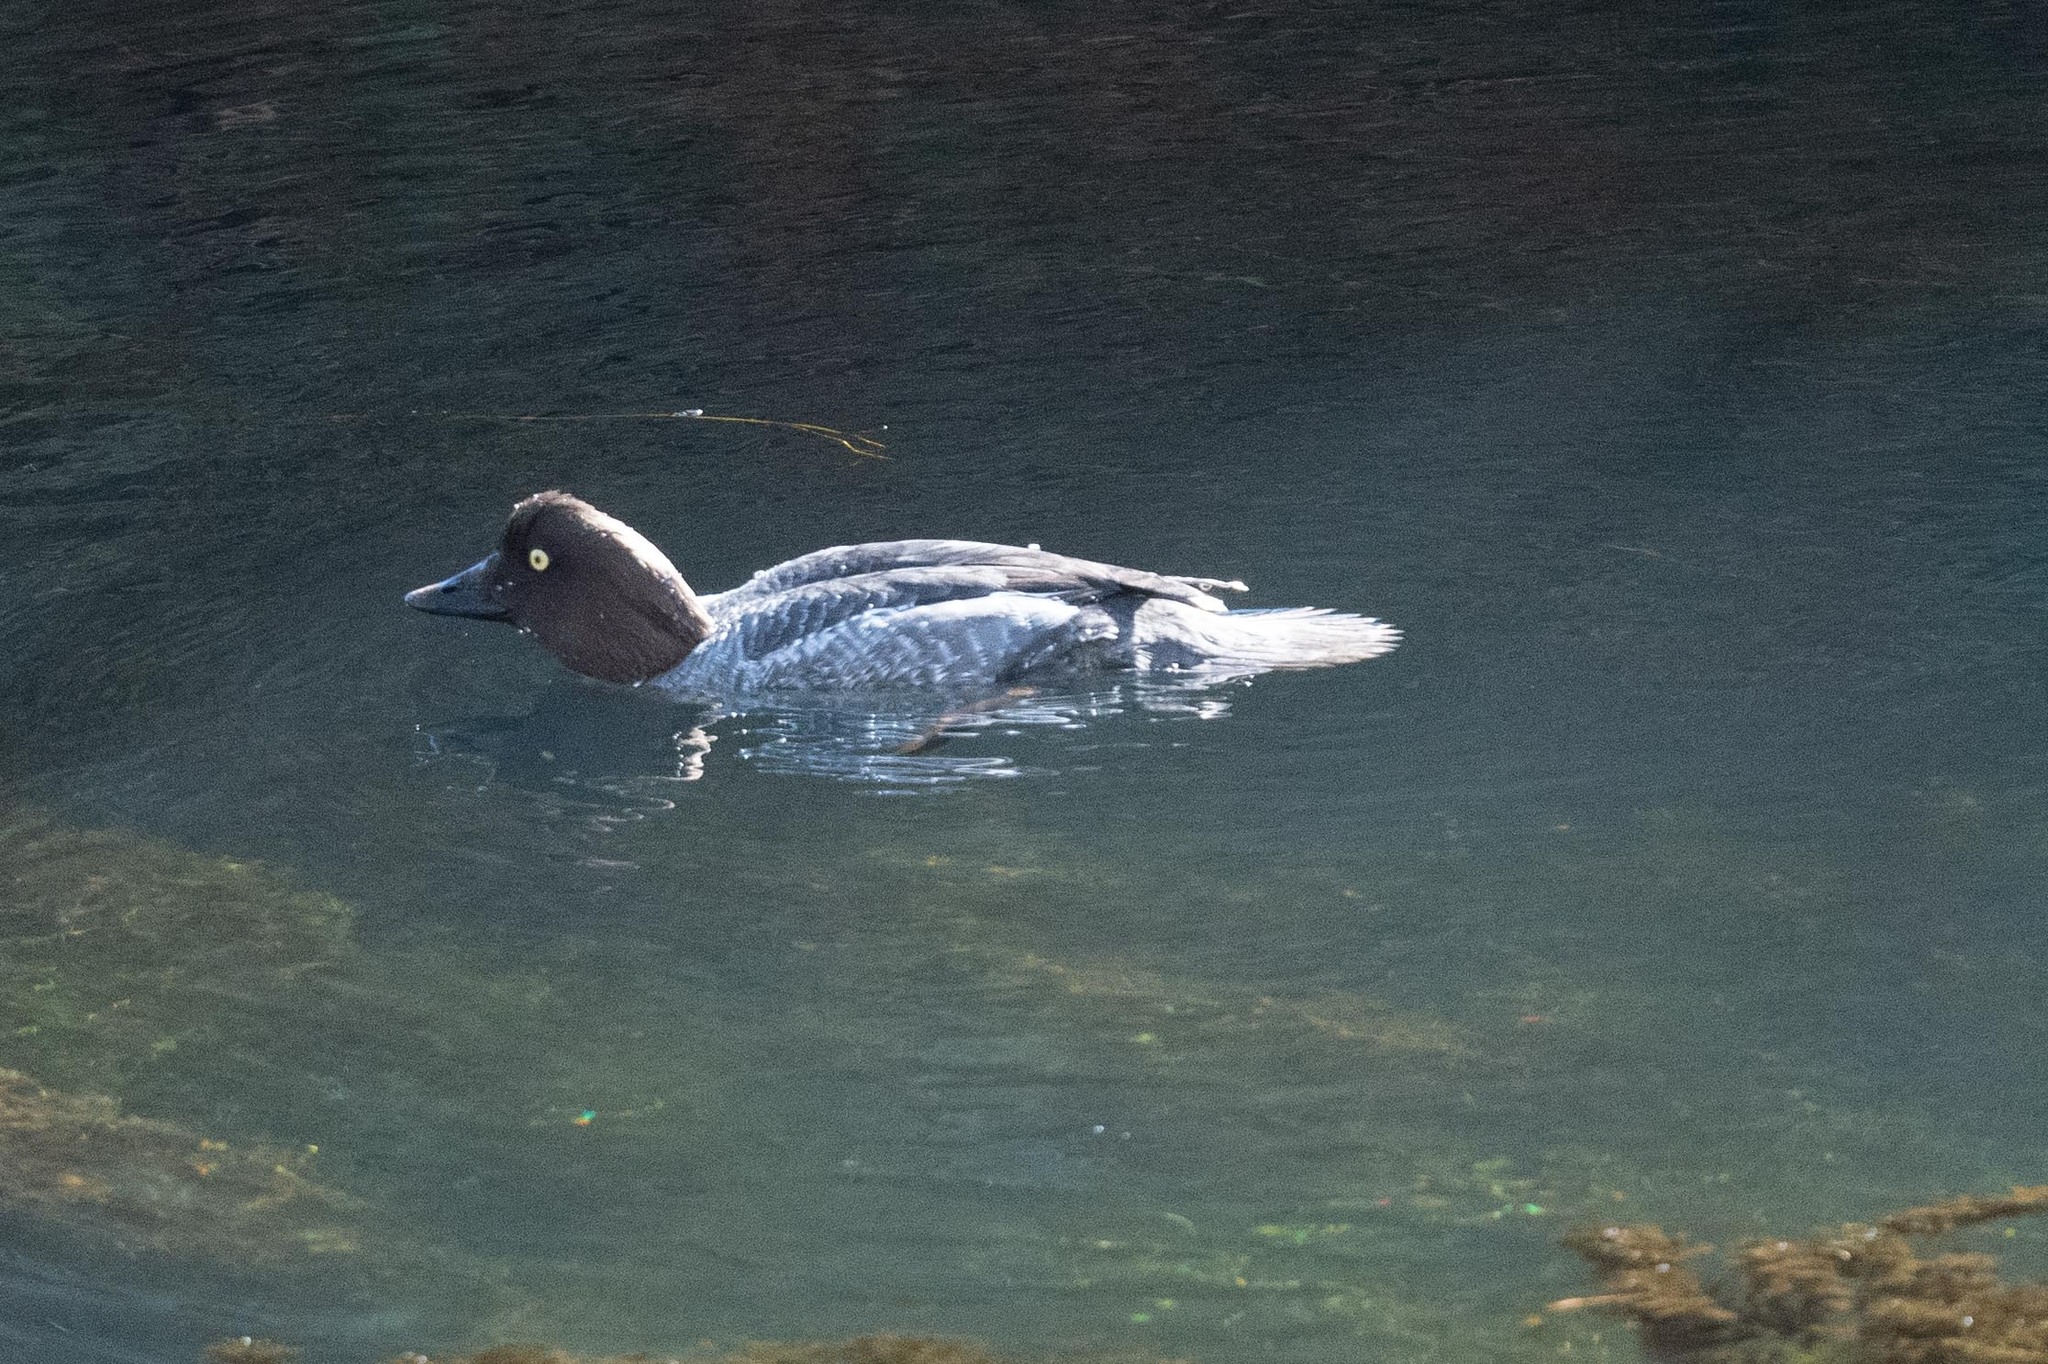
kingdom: Animalia
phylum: Chordata
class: Aves
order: Anseriformes
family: Anatidae
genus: Bucephala
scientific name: Bucephala clangula
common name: Common goldeneye
